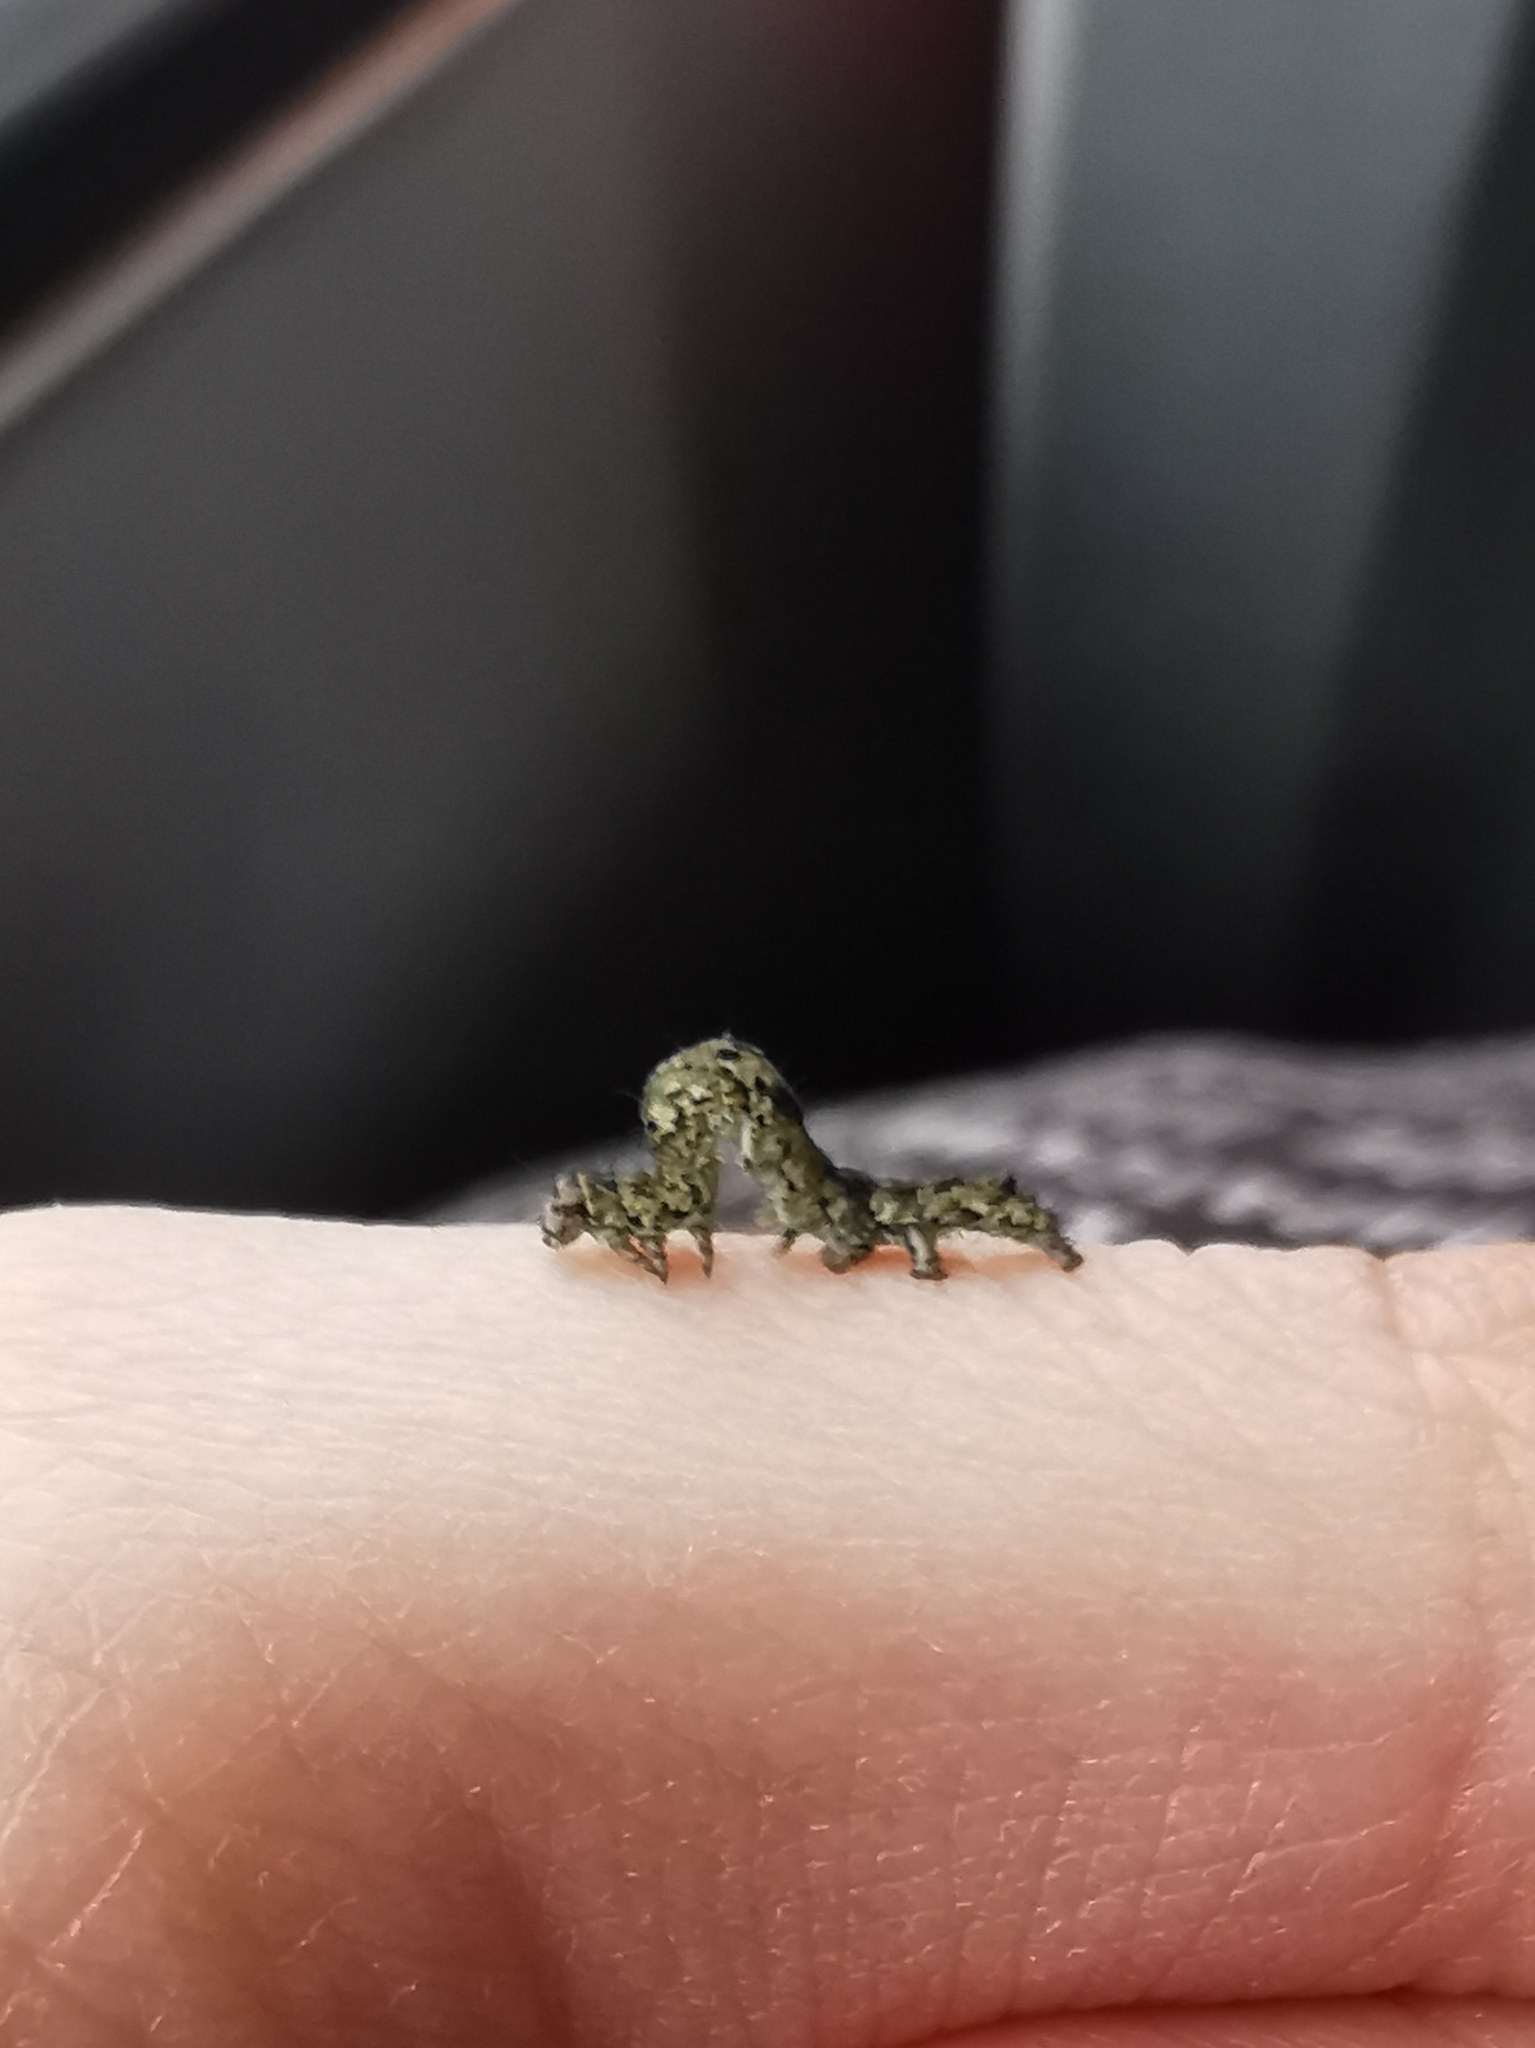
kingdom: Animalia
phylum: Arthropoda
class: Insecta
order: Lepidoptera
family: Erebidae
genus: Laspeyria
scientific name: Laspeyria flexula
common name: Beautiful hook-tip
